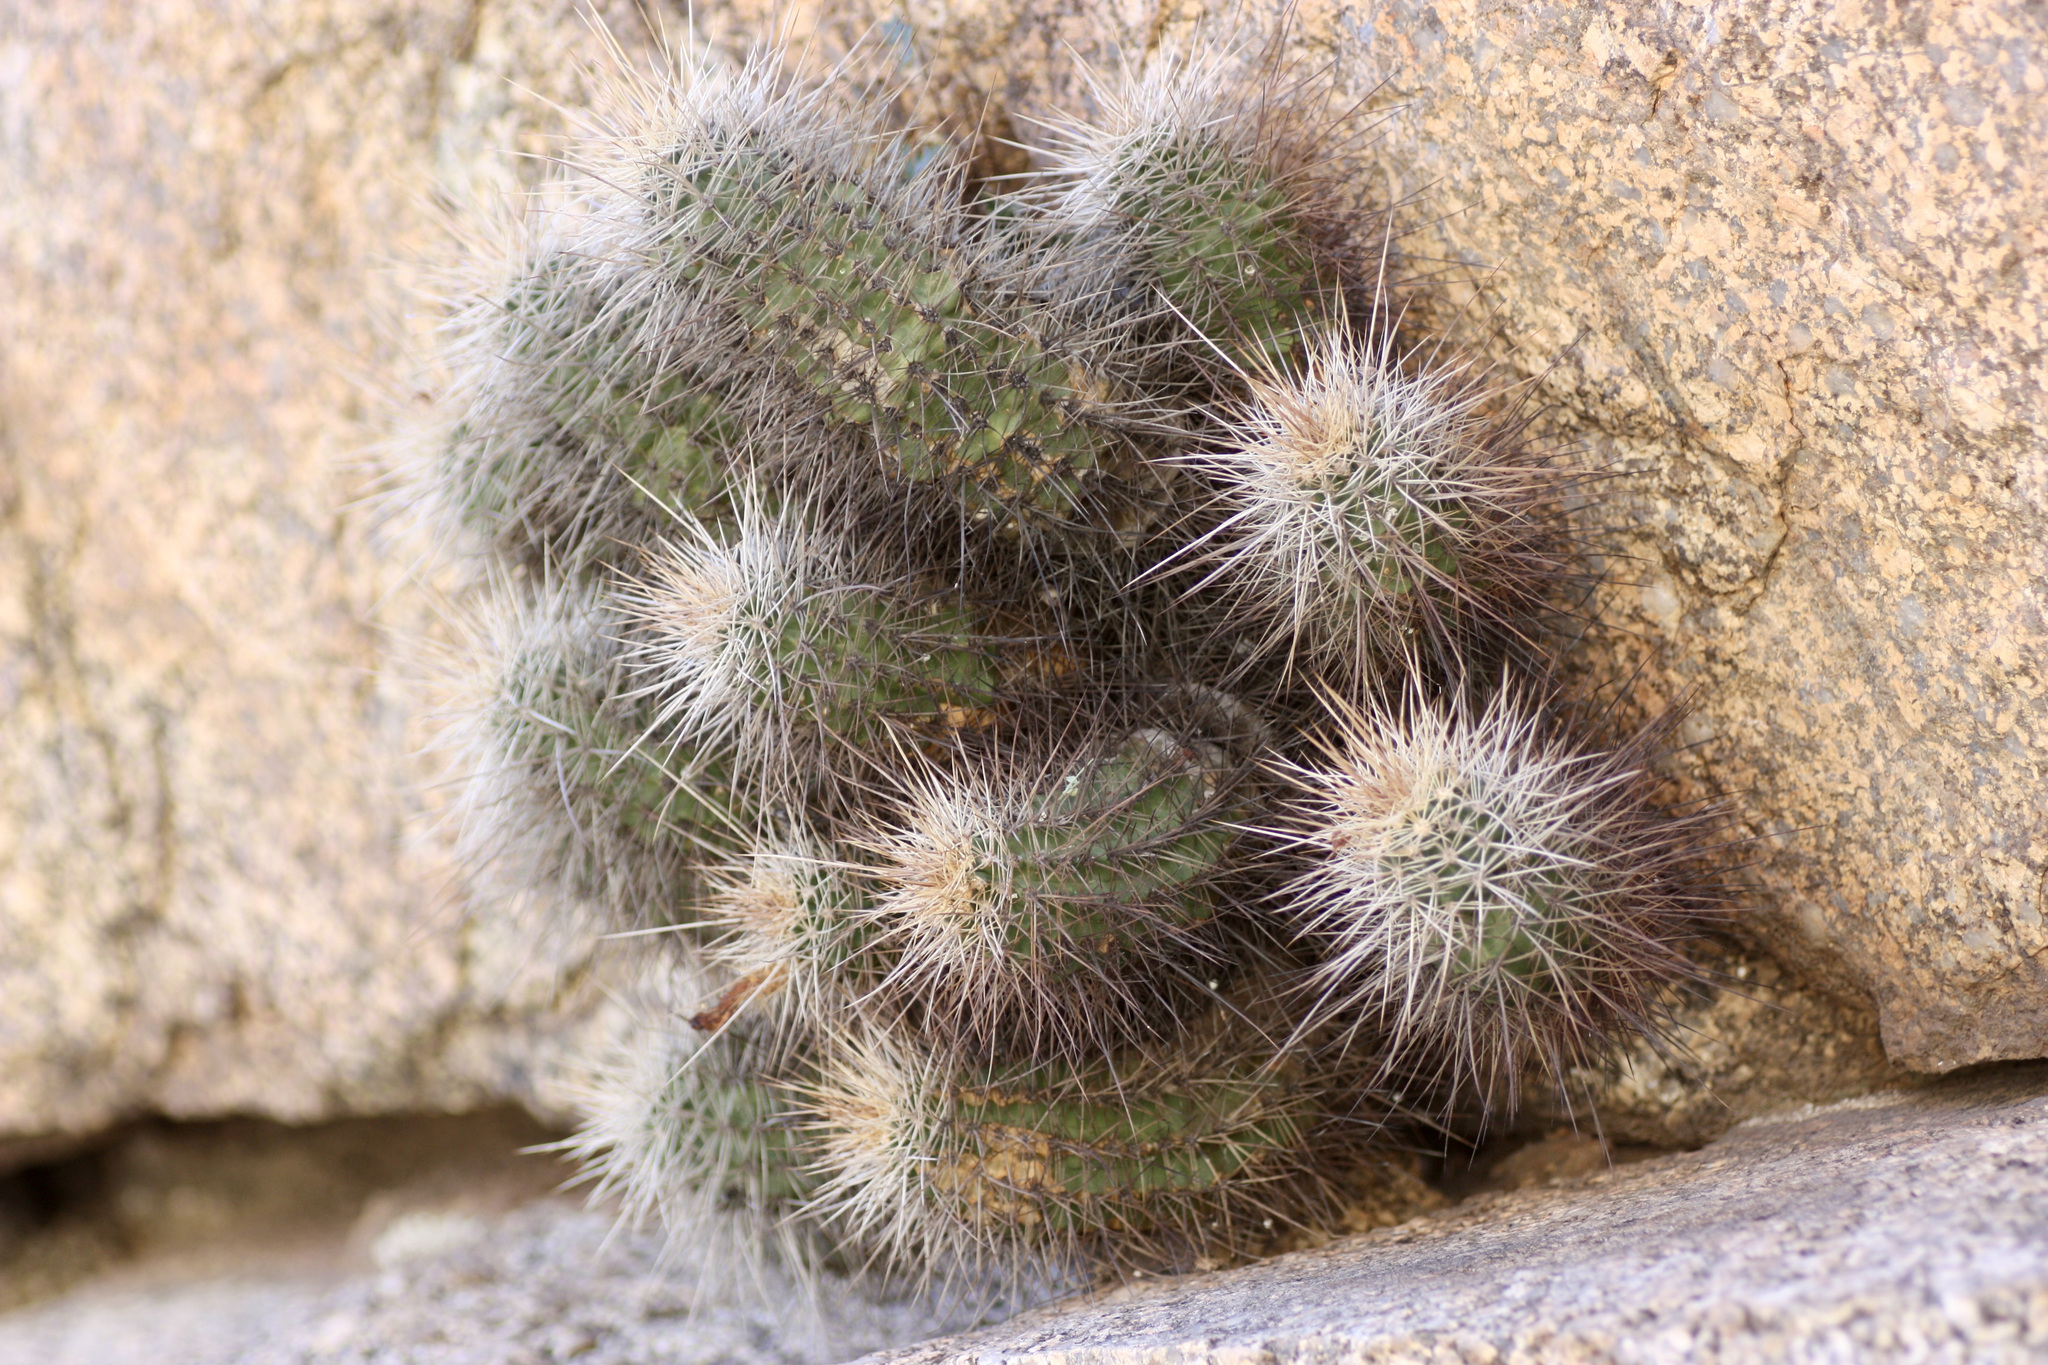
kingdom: Plantae
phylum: Tracheophyta
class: Magnoliopsida
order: Caryophyllales
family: Cactaceae
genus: Echinocereus
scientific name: Echinocereus yavapaiensis
